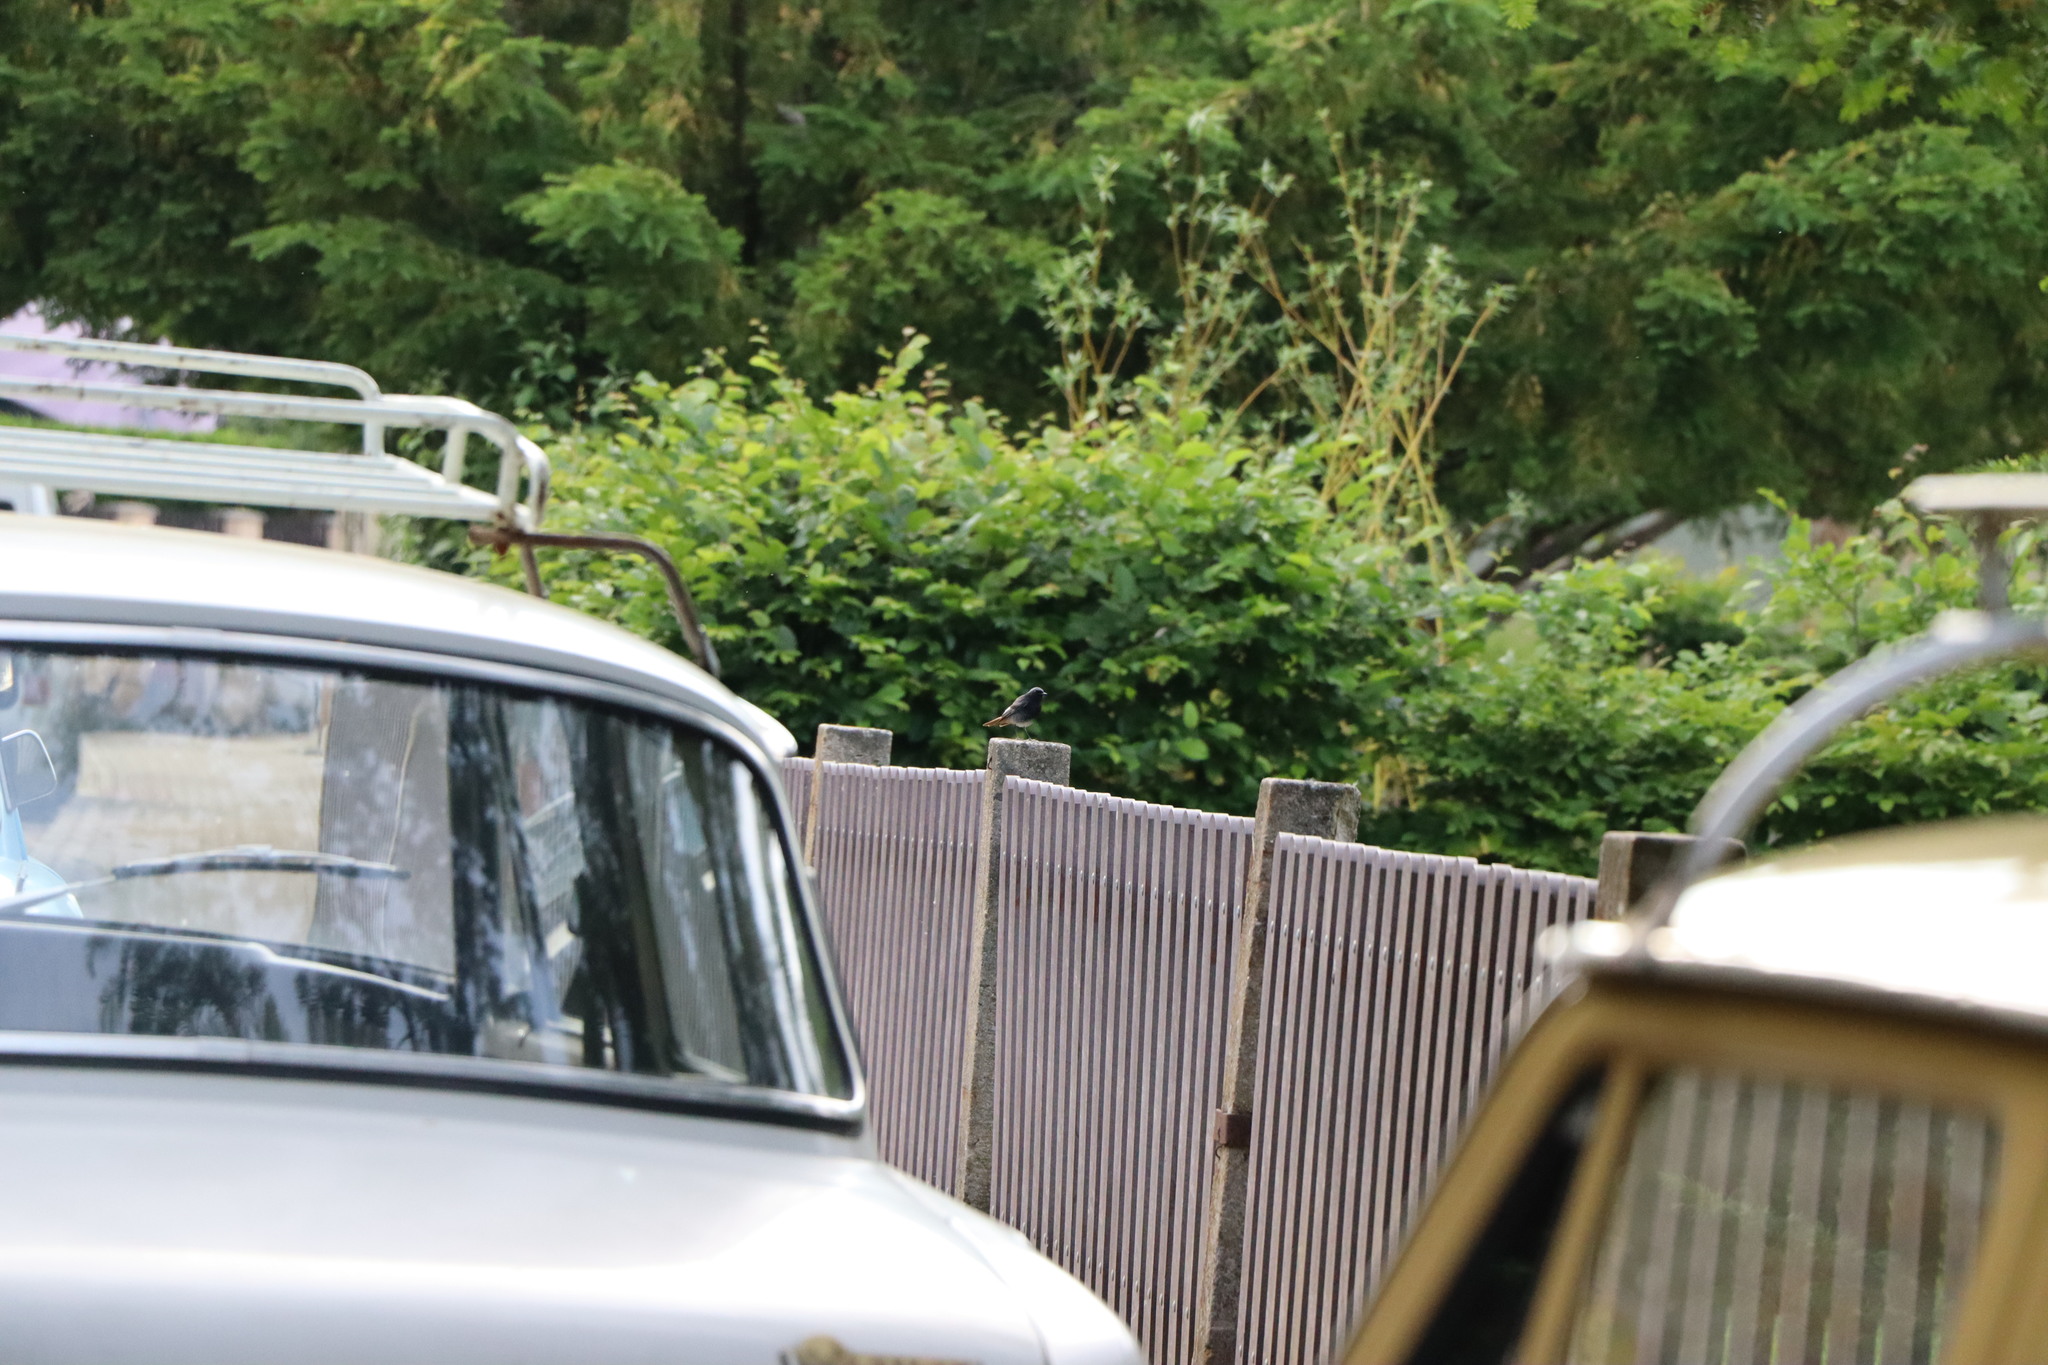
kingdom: Animalia
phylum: Chordata
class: Aves
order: Passeriformes
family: Muscicapidae
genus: Phoenicurus
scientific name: Phoenicurus ochruros
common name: Black redstart
